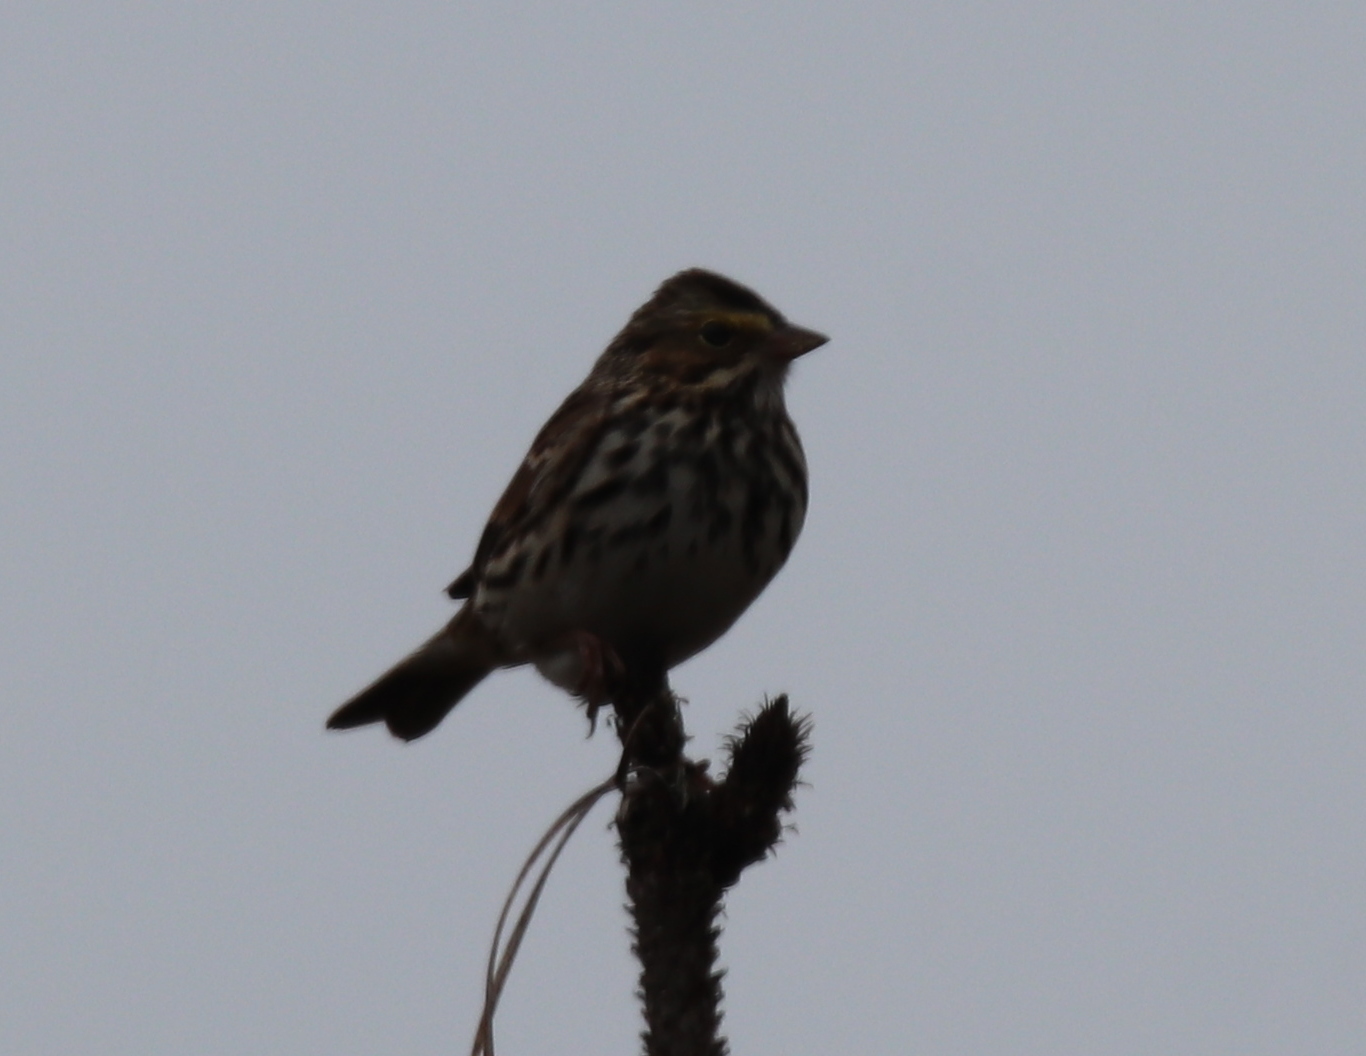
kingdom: Animalia
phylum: Chordata
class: Aves
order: Passeriformes
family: Passerellidae
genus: Passerculus
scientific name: Passerculus sandwichensis
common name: Savannah sparrow
